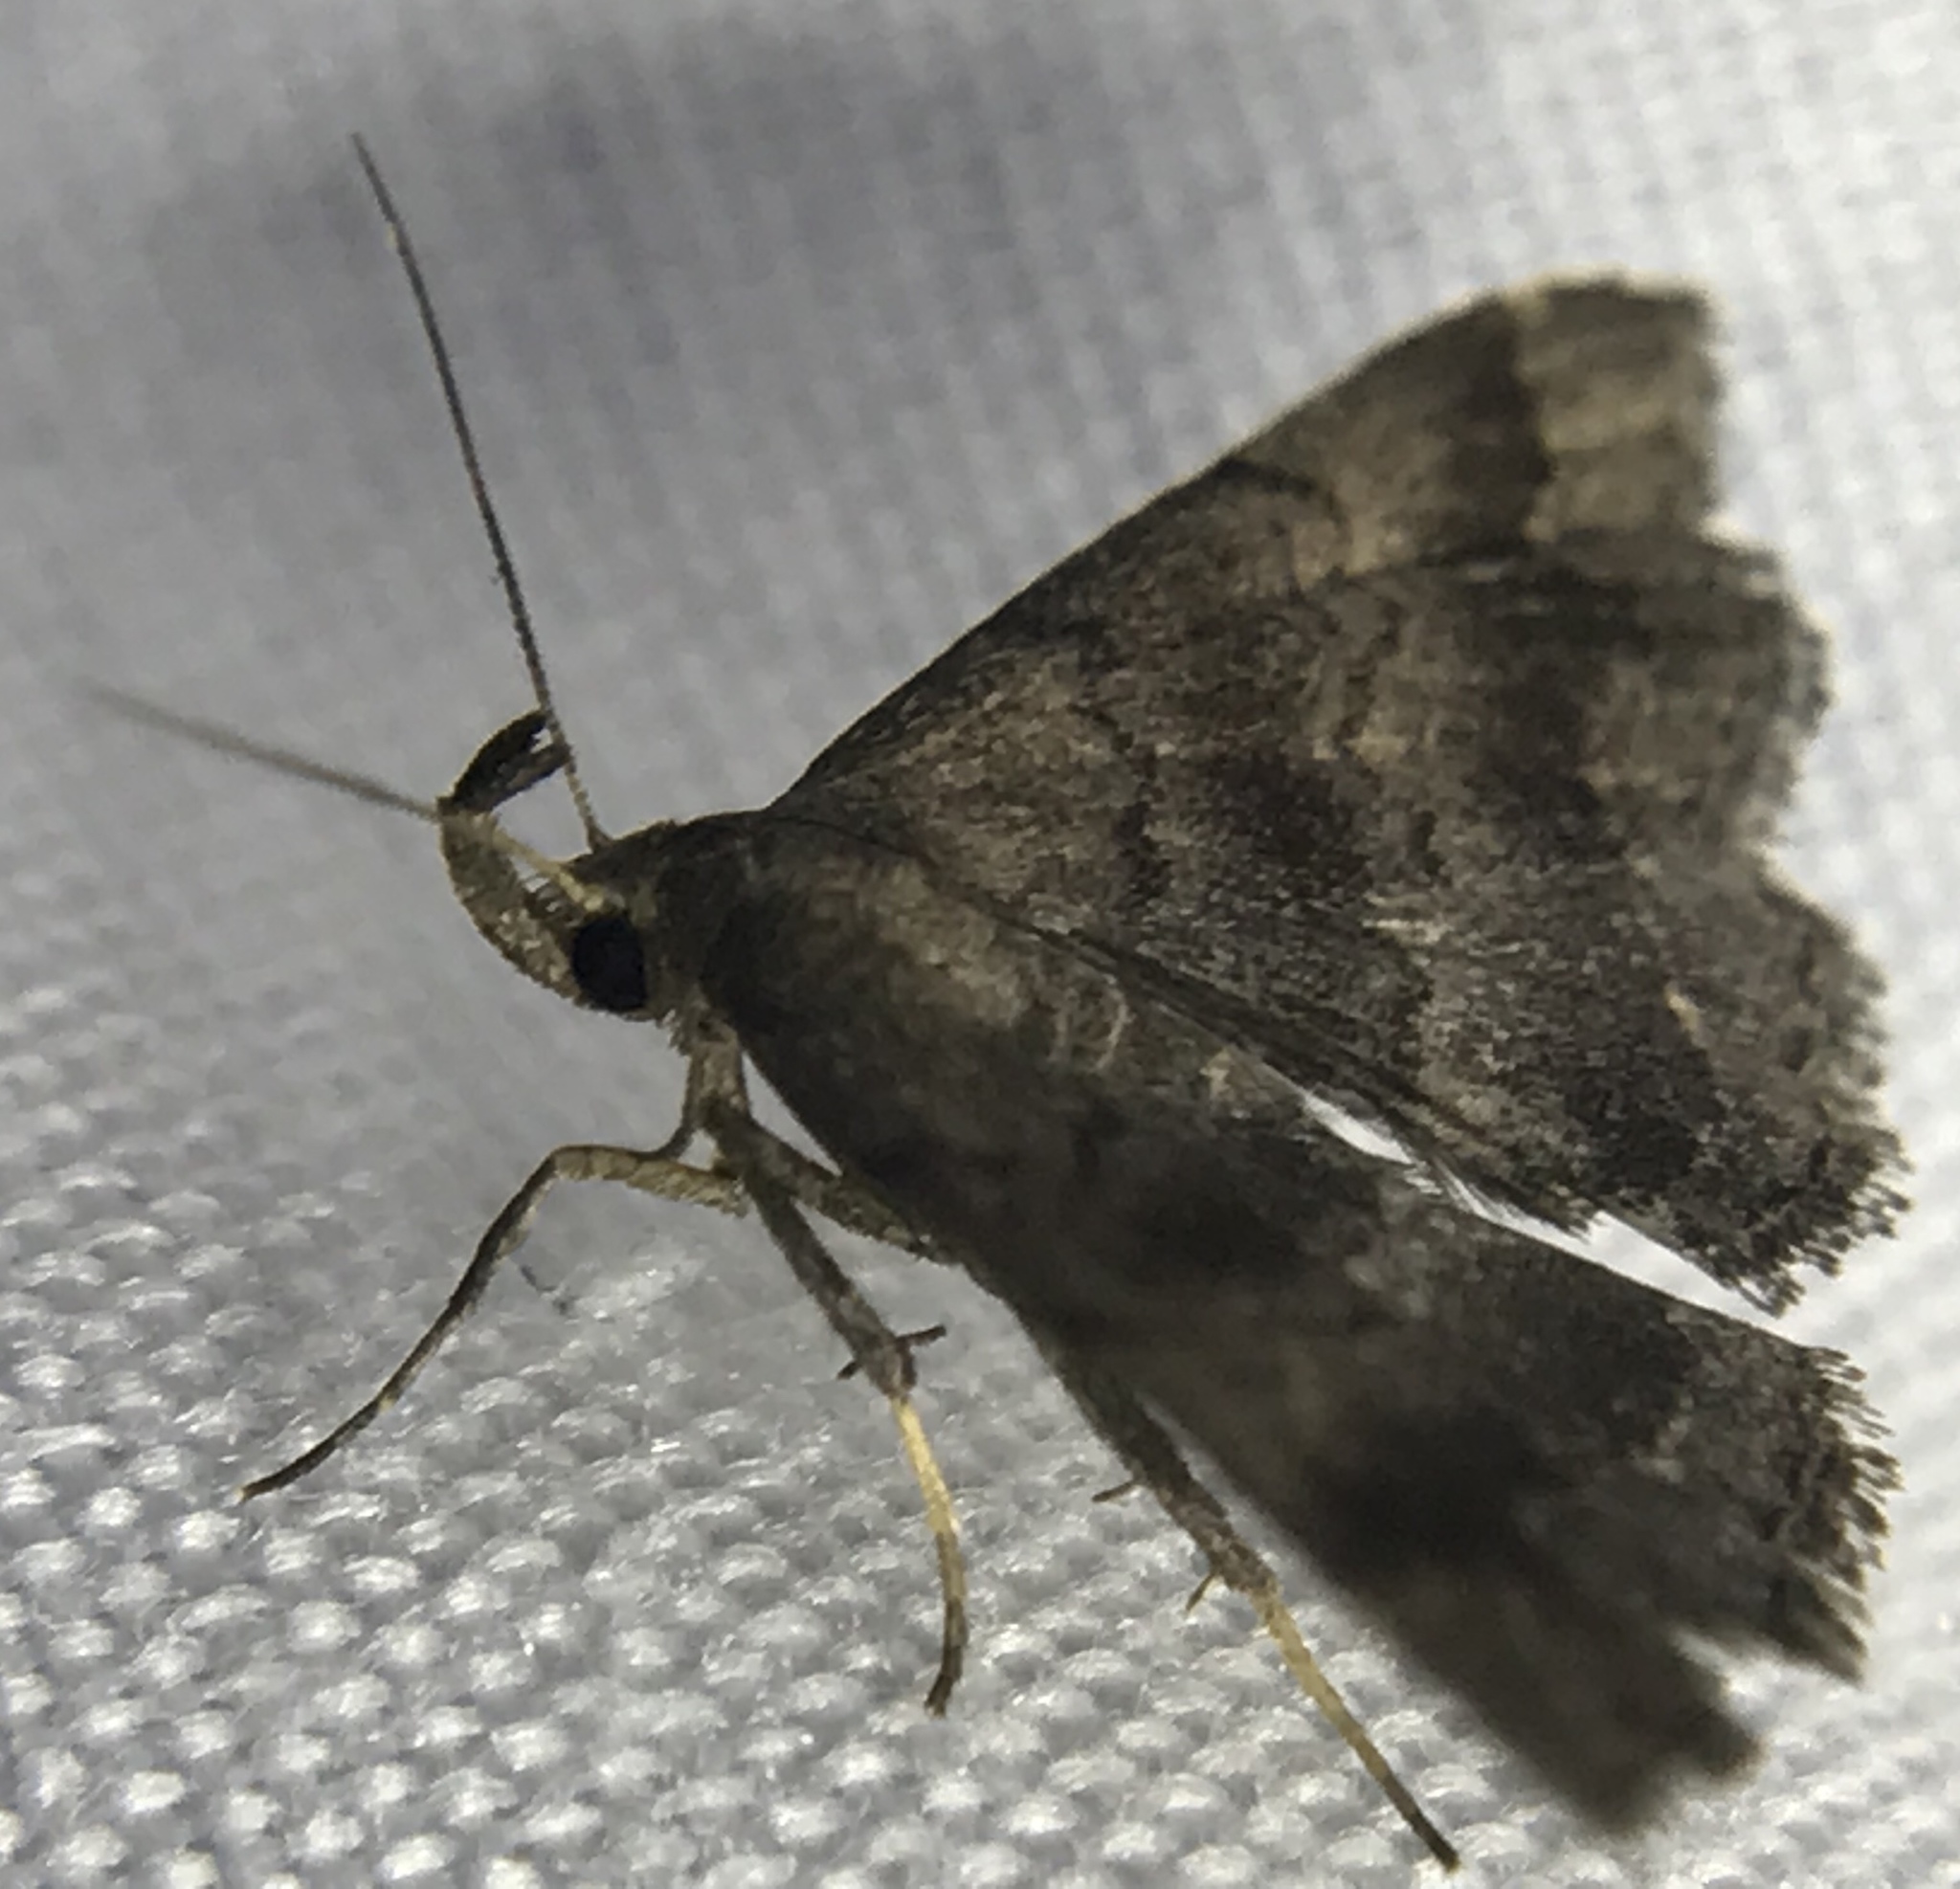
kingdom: Animalia
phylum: Arthropoda
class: Insecta
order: Lepidoptera
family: Erebidae
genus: Phalaenostola
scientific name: Phalaenostola larentioides
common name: Black-banded owlet
